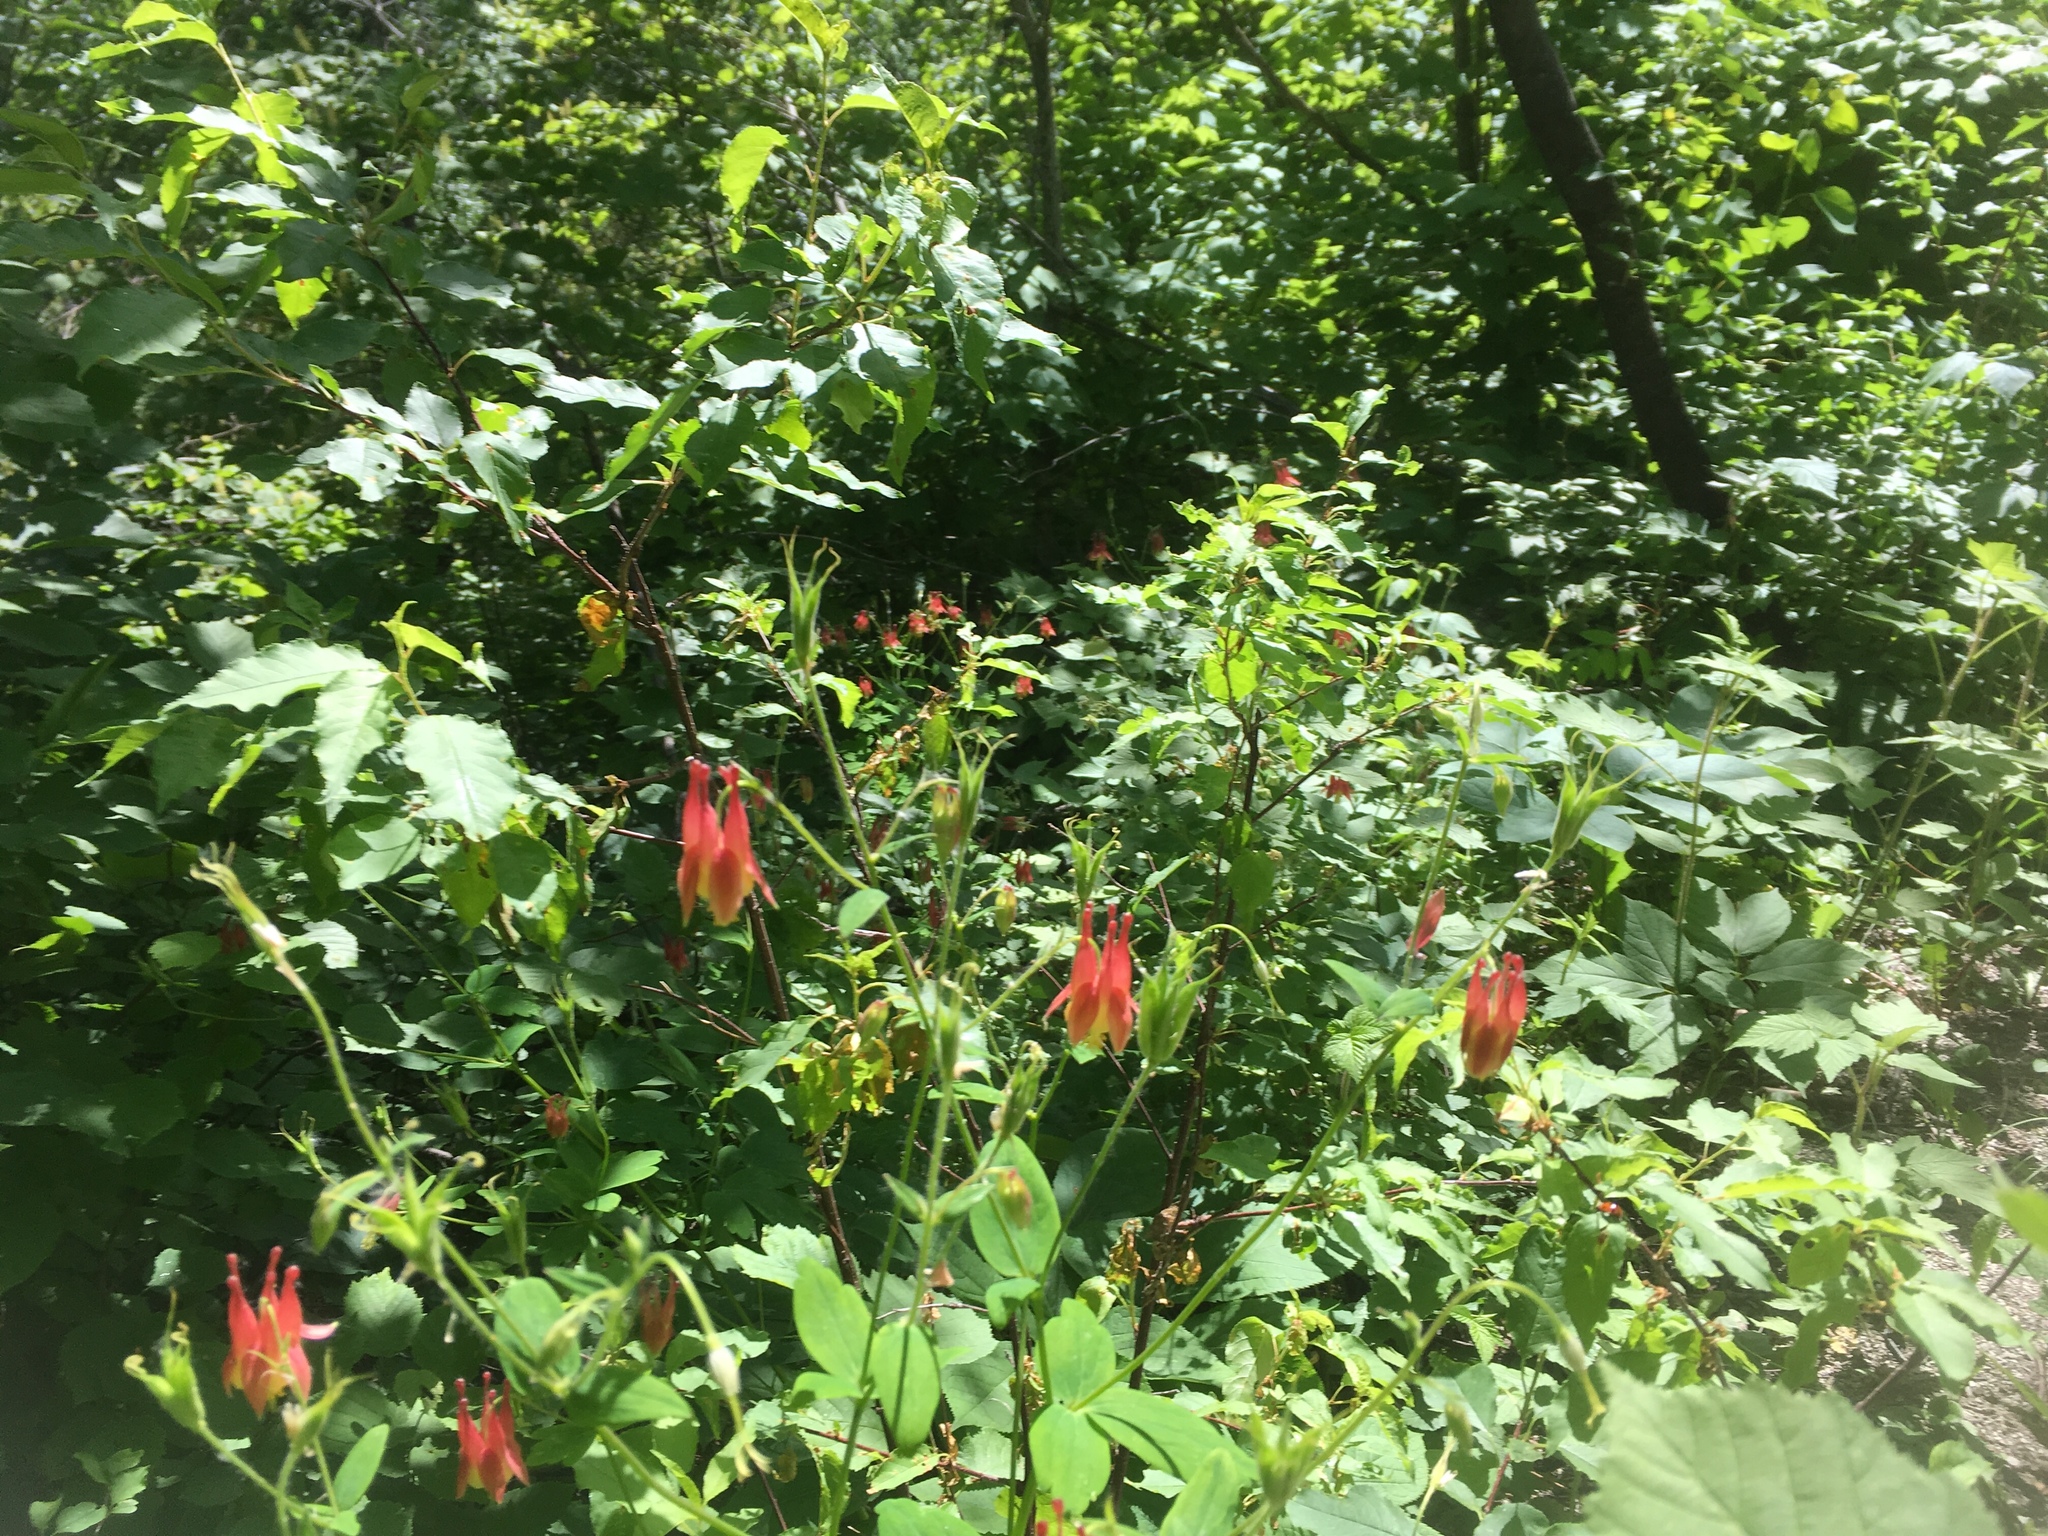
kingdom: Plantae
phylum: Tracheophyta
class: Magnoliopsida
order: Ranunculales
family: Ranunculaceae
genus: Aquilegia
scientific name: Aquilegia canadensis
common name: American columbine
